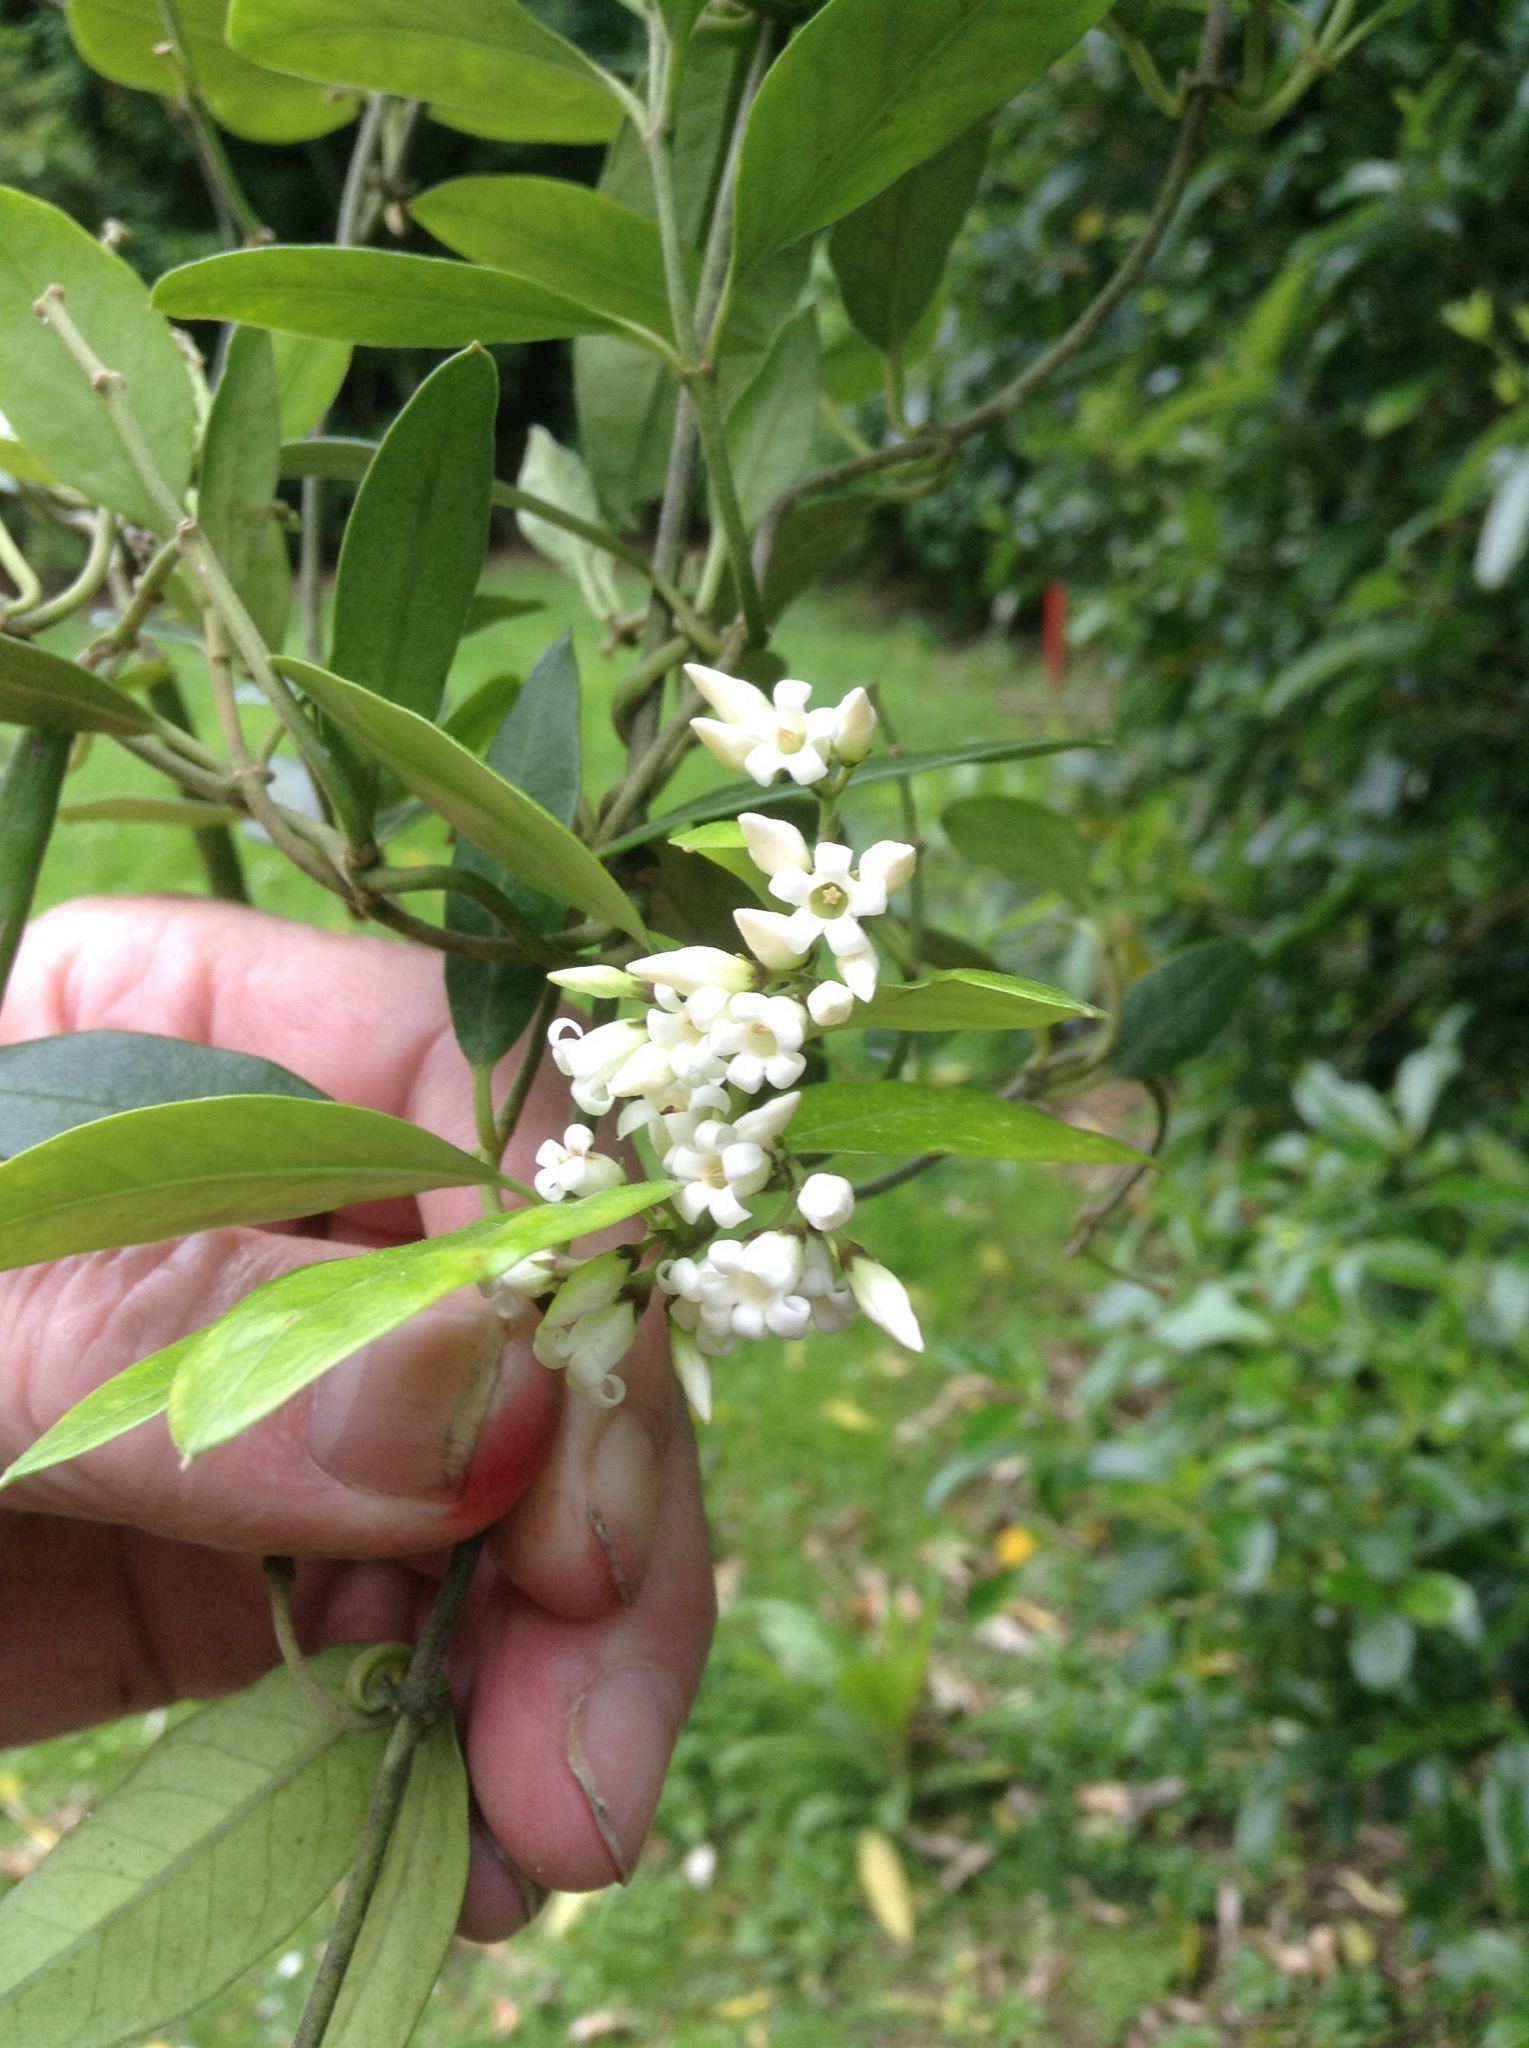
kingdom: Plantae
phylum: Tracheophyta
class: Magnoliopsida
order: Gentianales
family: Apocynaceae
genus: Parsonsia
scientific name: Parsonsia heterophylla
